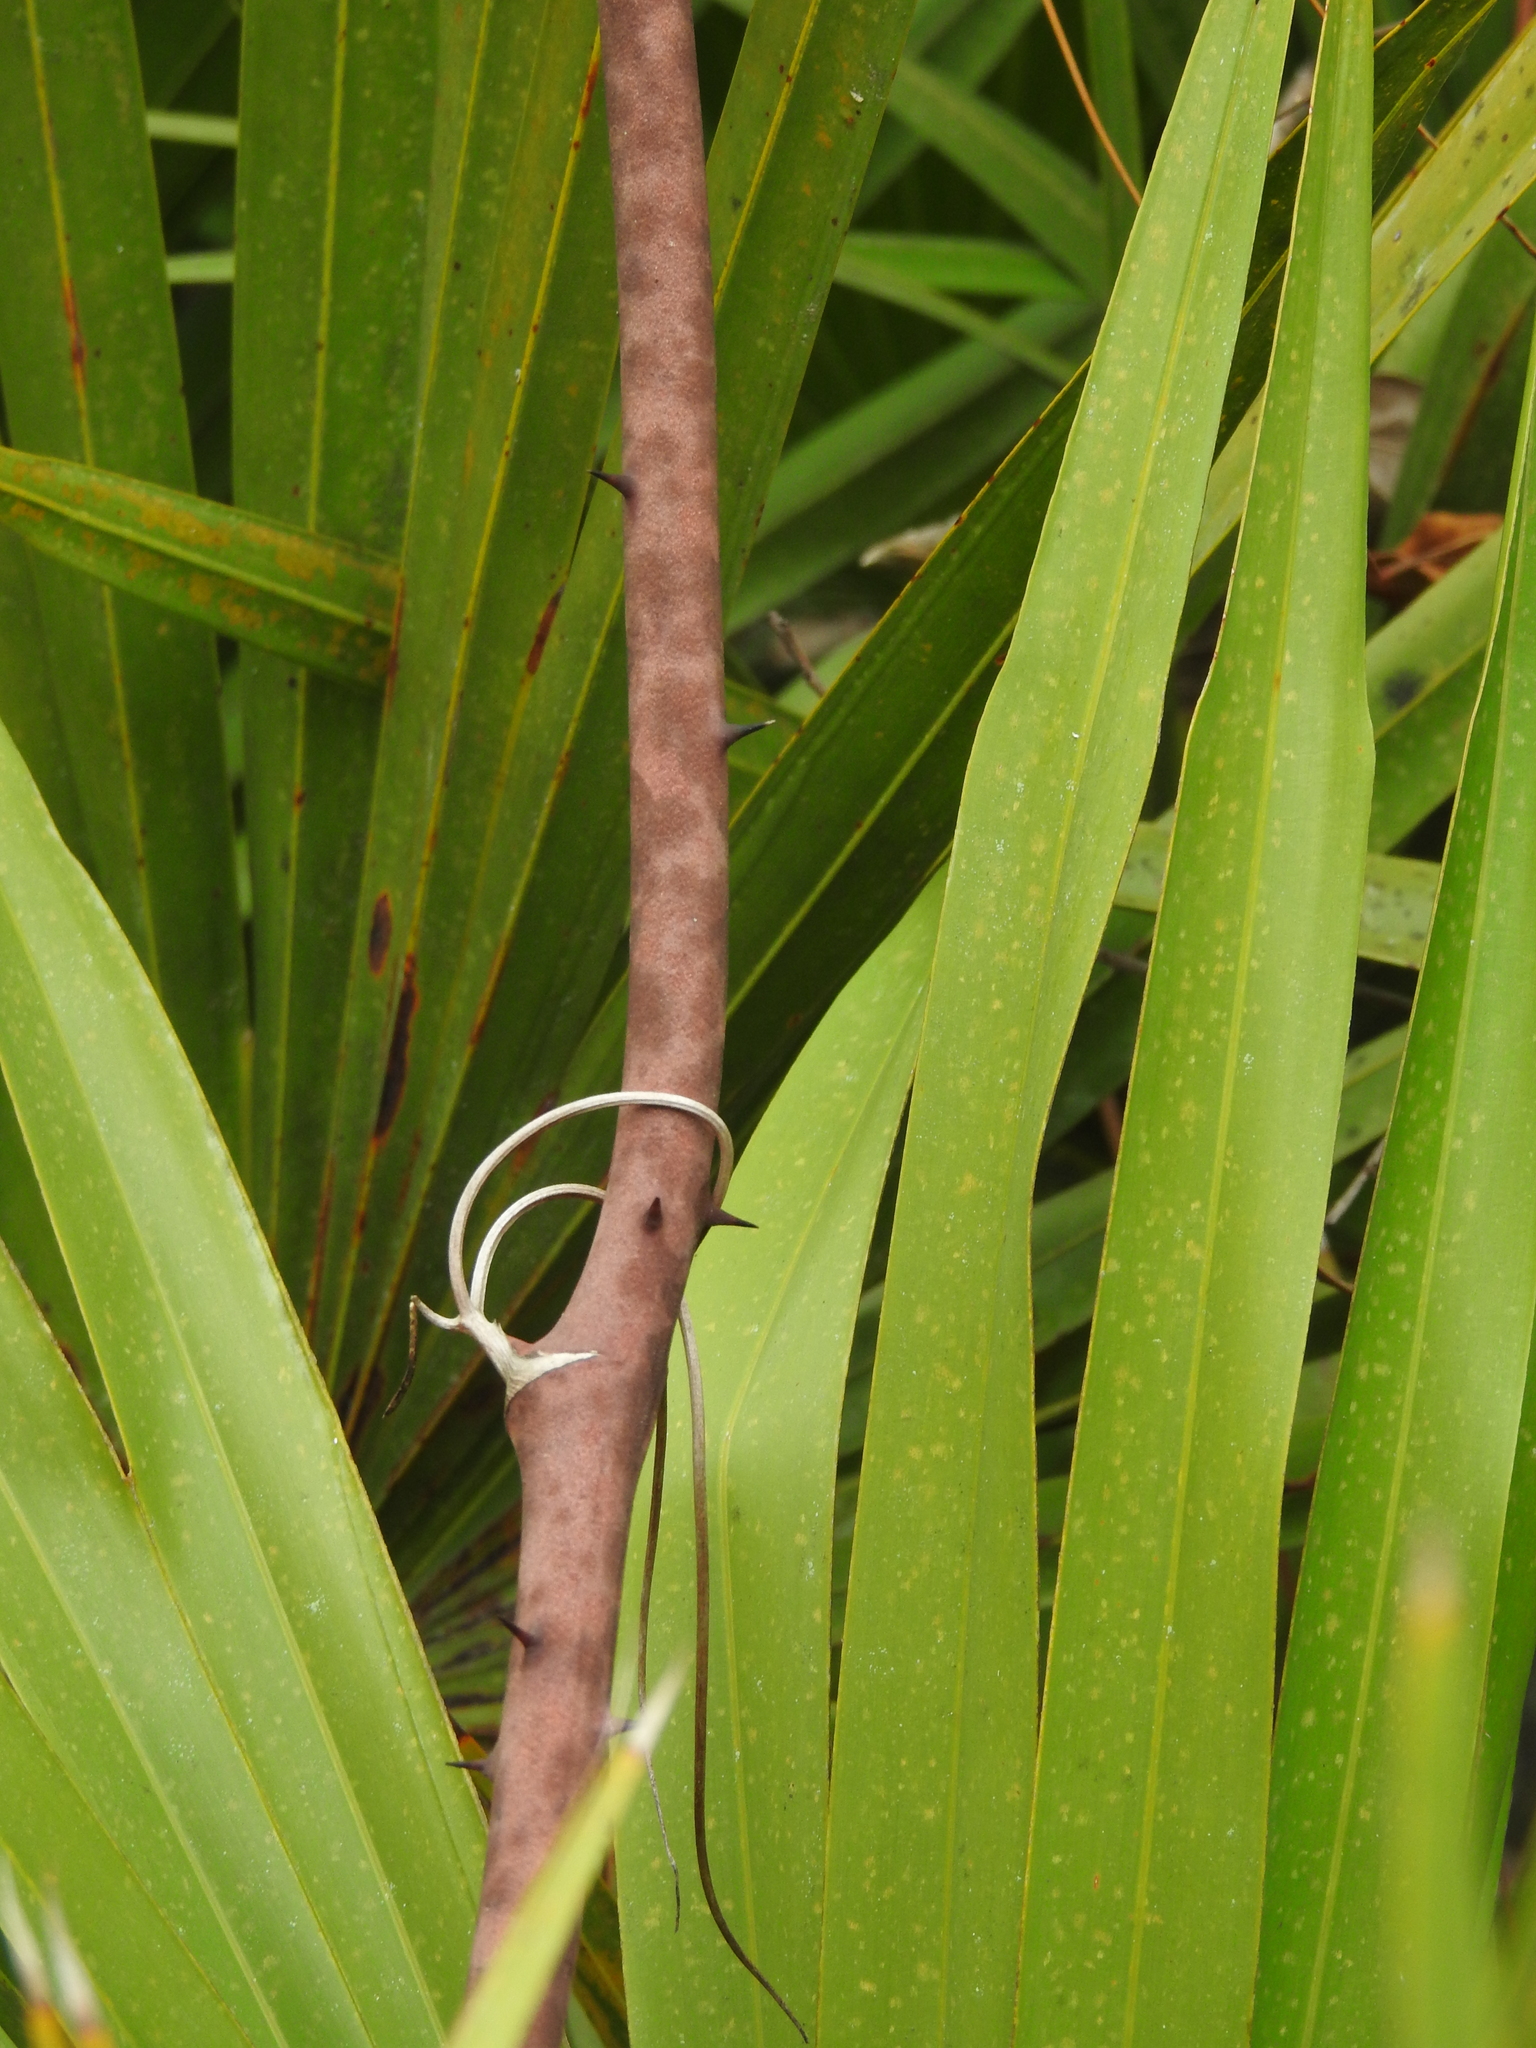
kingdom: Plantae
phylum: Tracheophyta
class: Liliopsida
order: Liliales
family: Smilacaceae
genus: Smilax
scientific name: Smilax auriculata
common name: Wild bamboo
